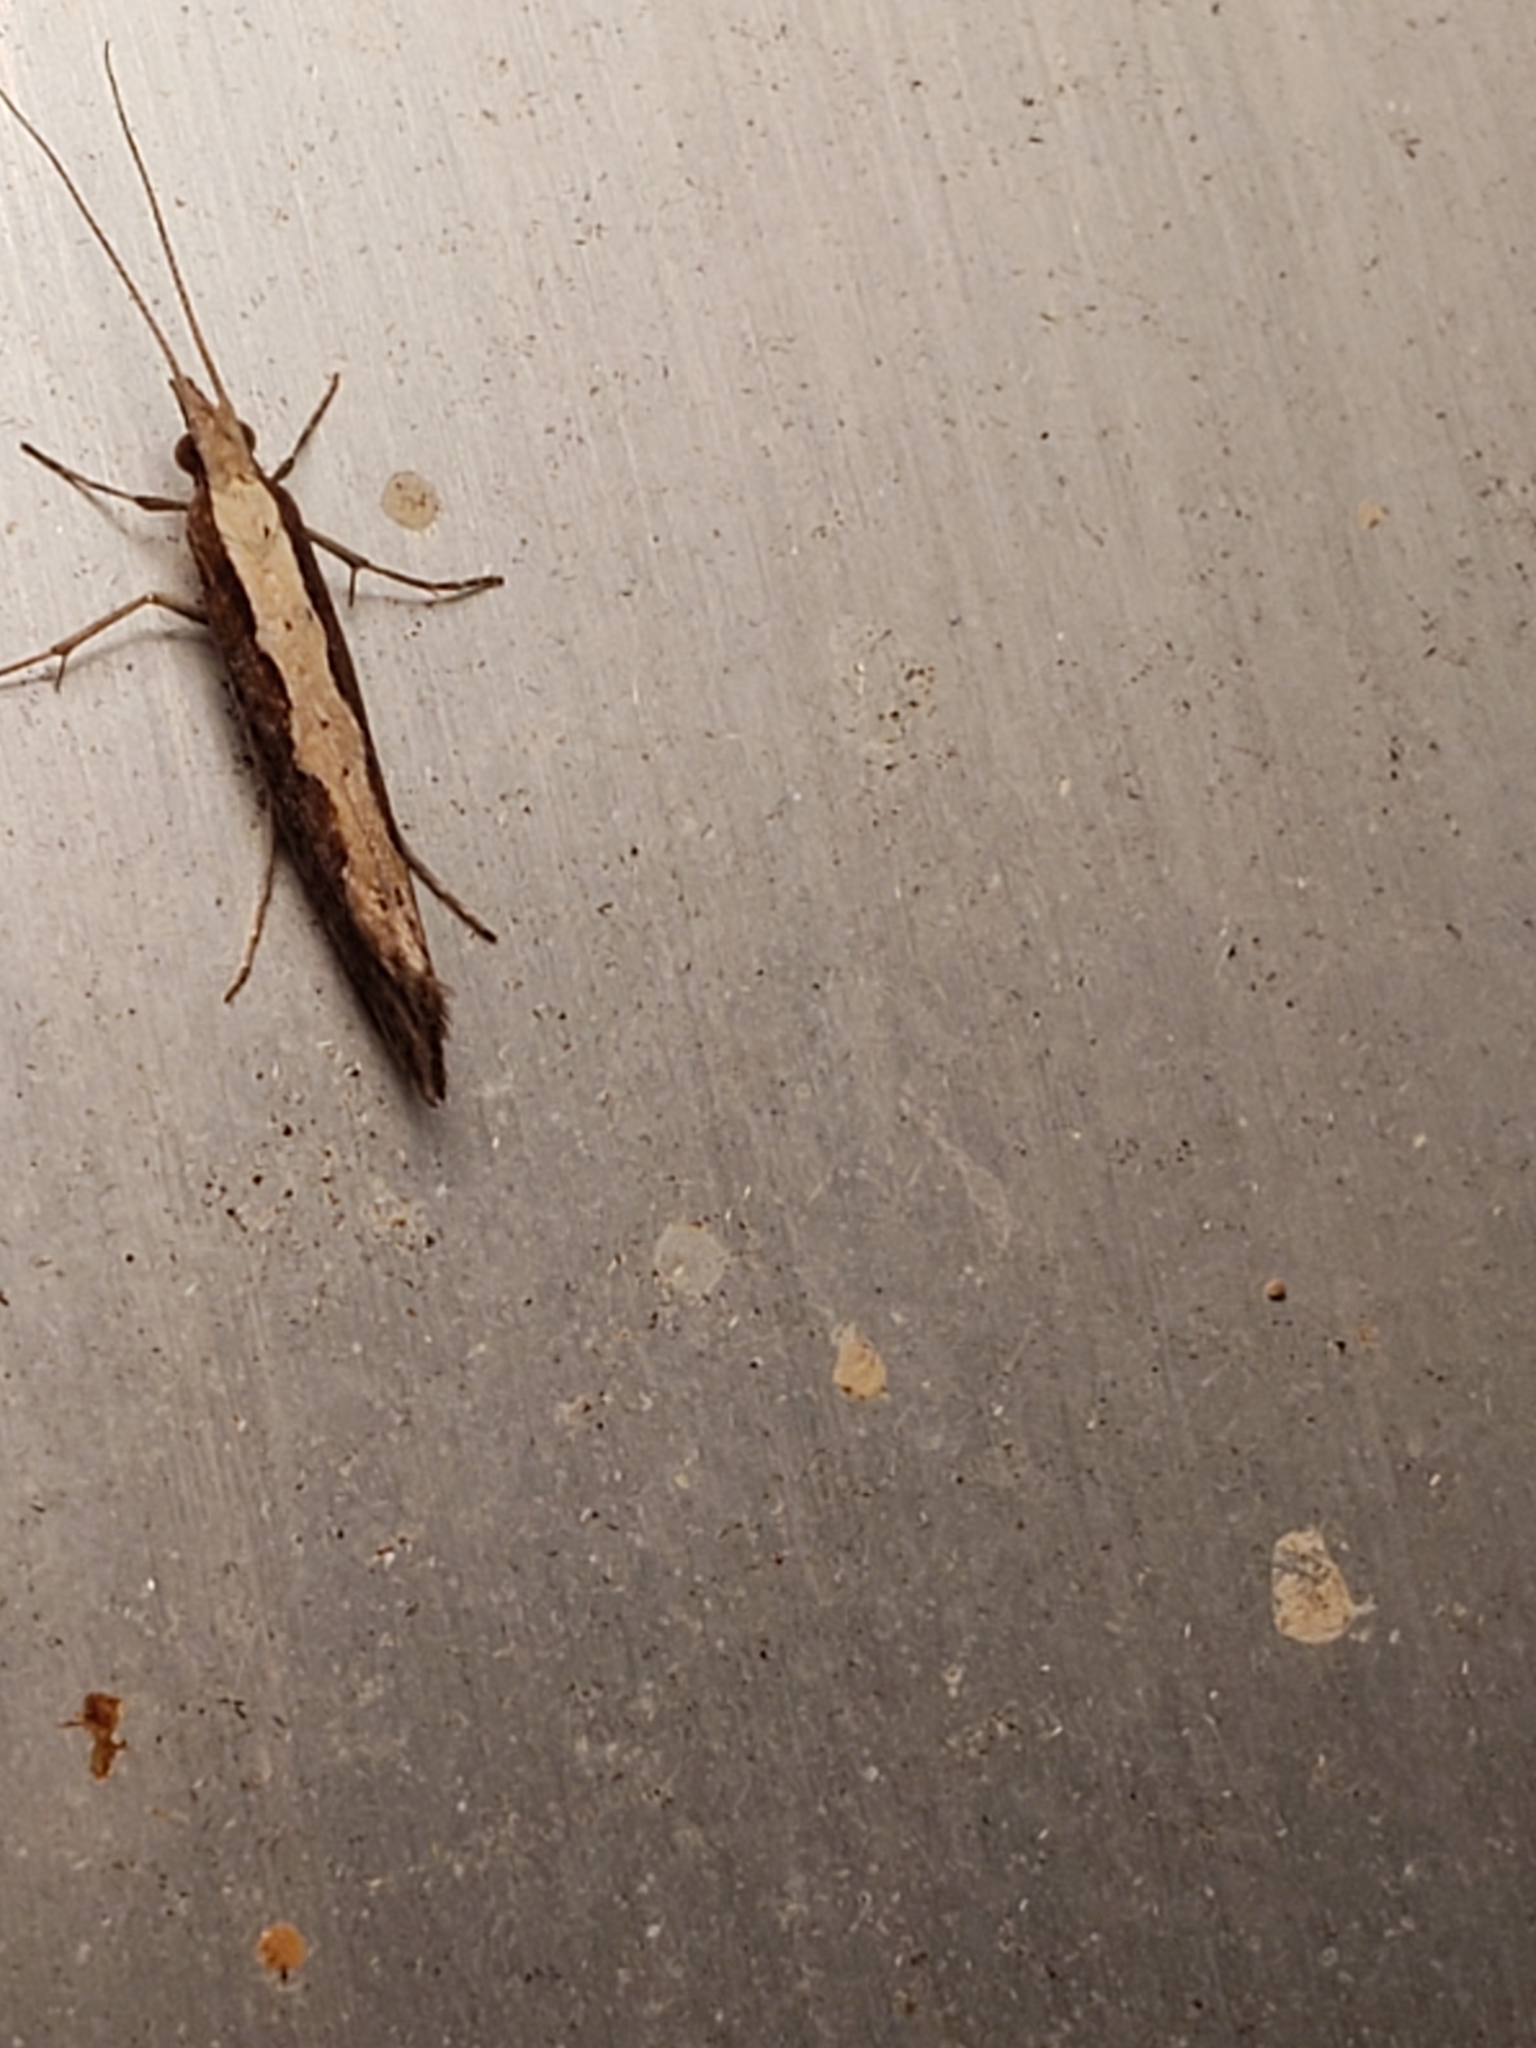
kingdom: Animalia
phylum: Arthropoda
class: Insecta
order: Lepidoptera
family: Plutellidae
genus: Plutella
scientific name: Plutella xylostella
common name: Diamond-back moth
